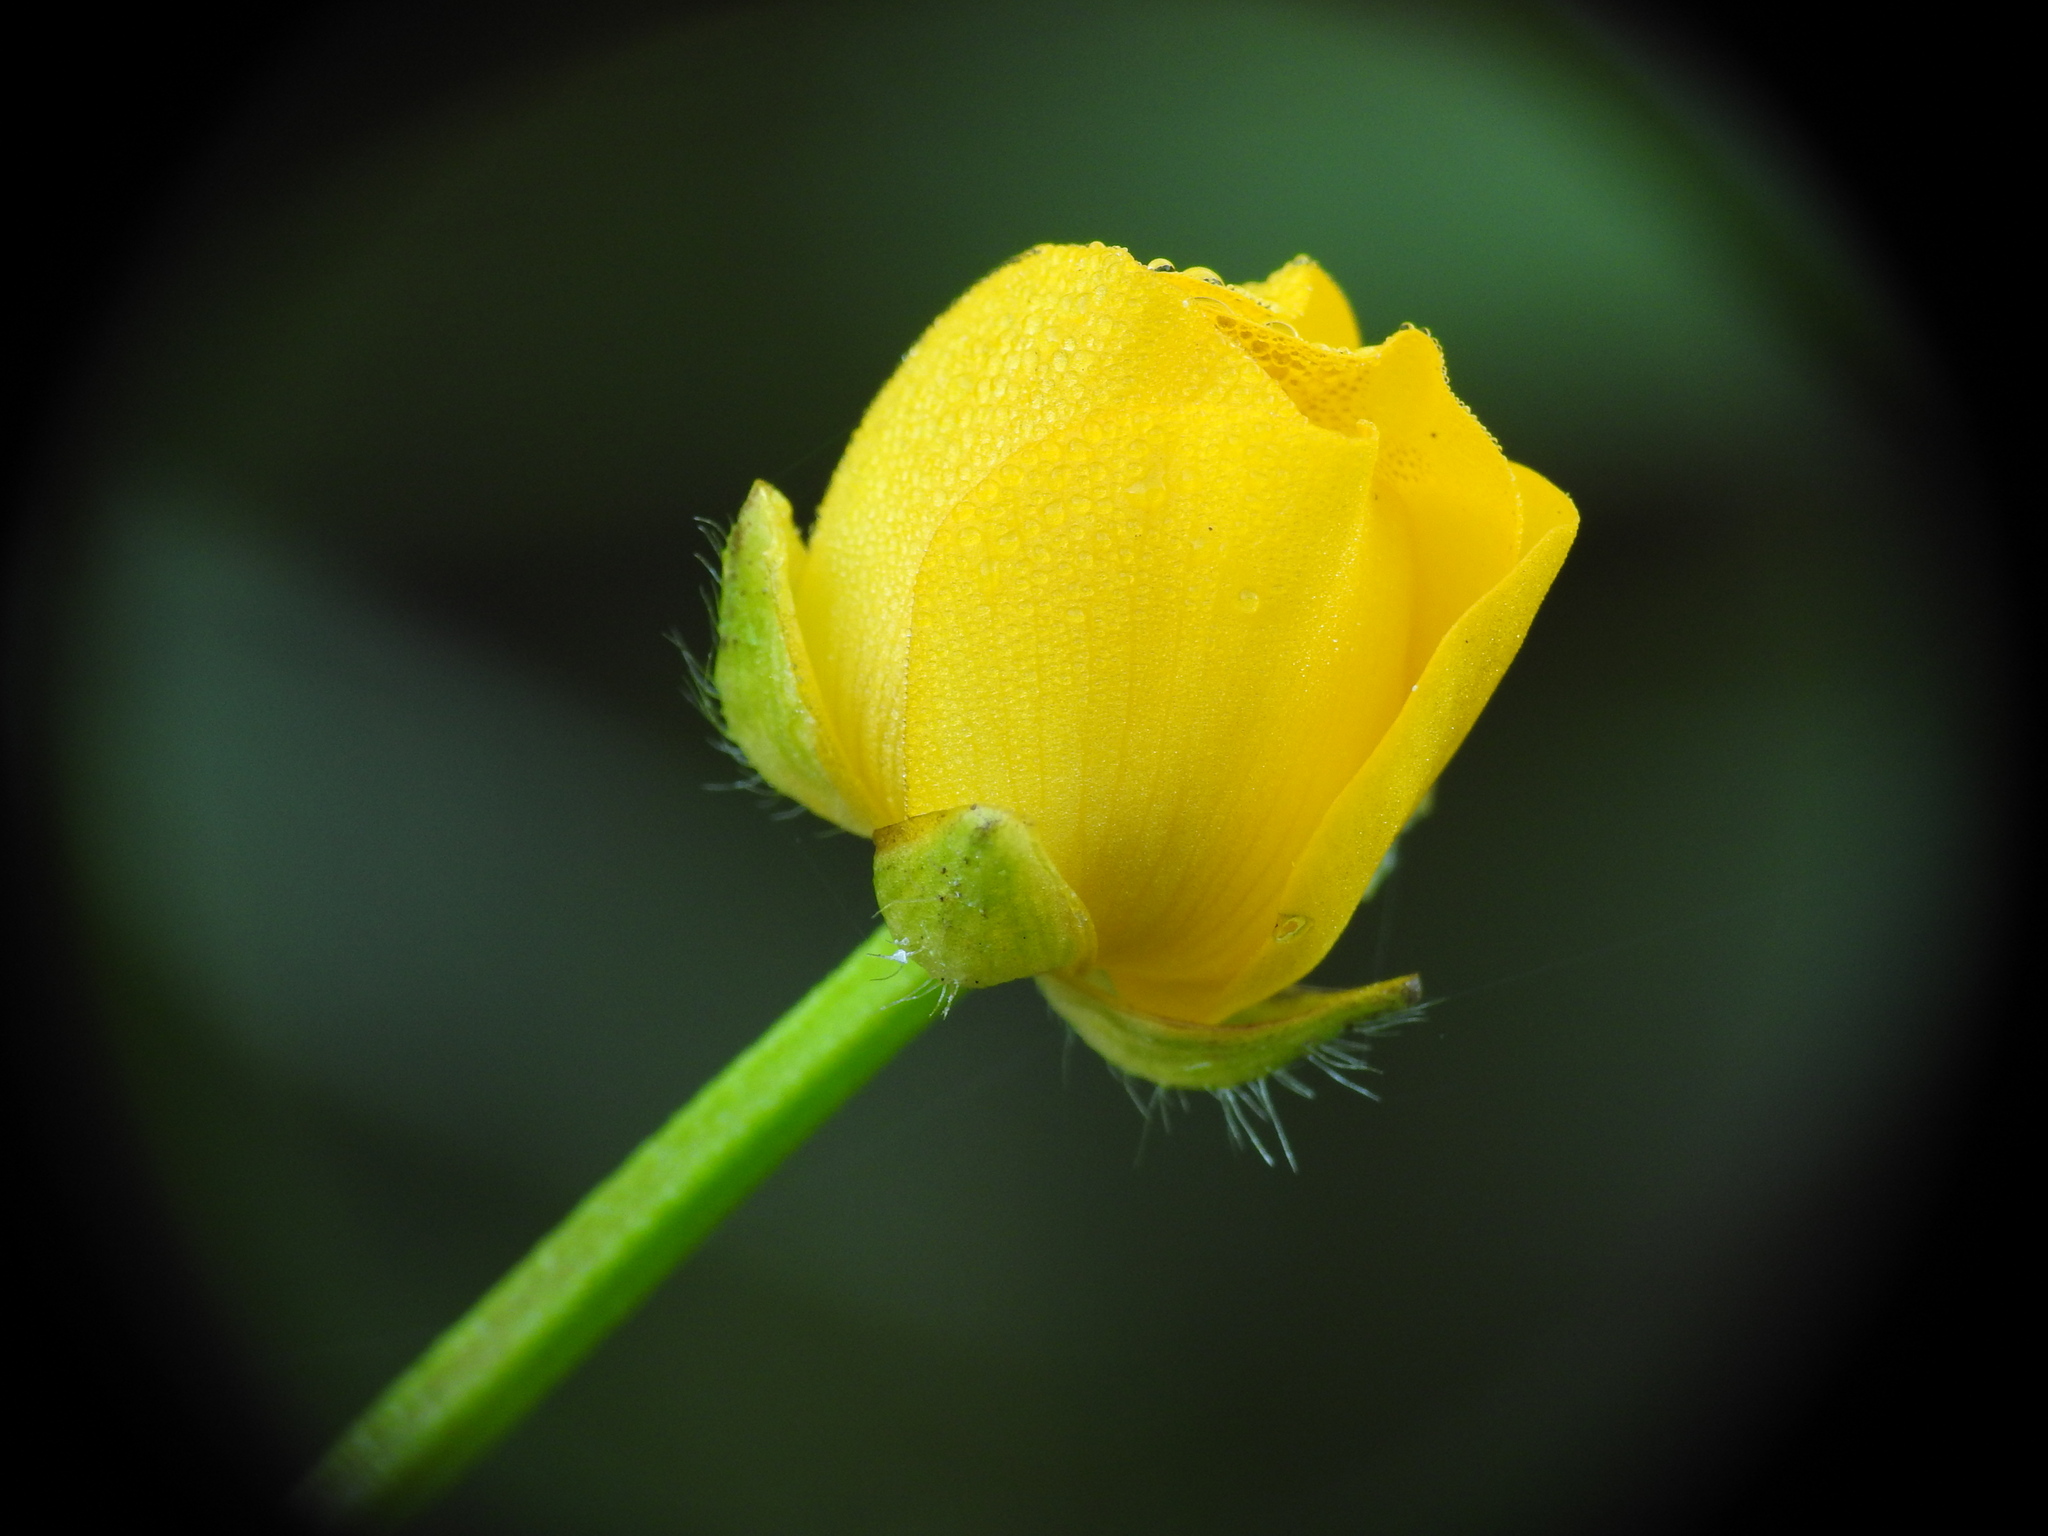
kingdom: Plantae
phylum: Tracheophyta
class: Magnoliopsida
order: Ranunculales
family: Ranunculaceae
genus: Ranunculus
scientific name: Ranunculus repens
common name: Creeping buttercup
